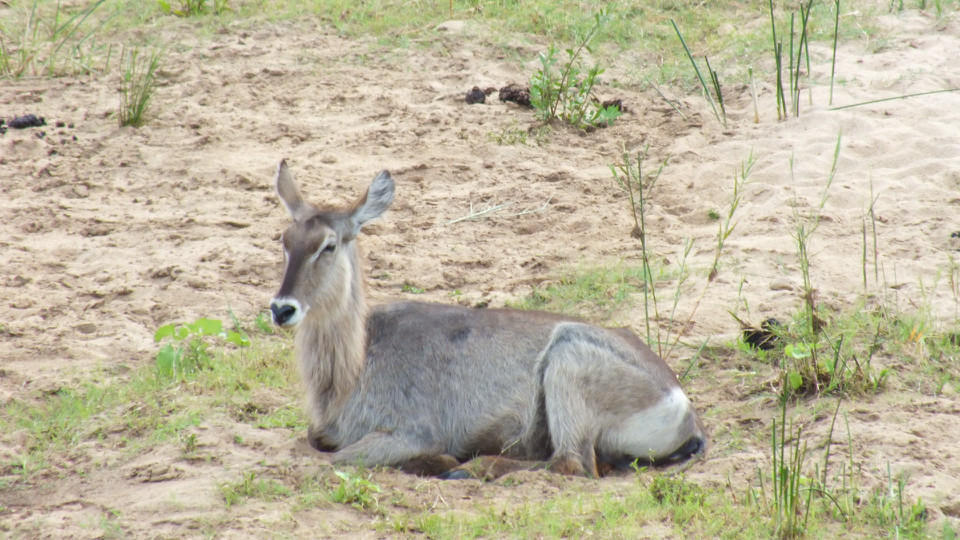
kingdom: Animalia
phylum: Chordata
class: Mammalia
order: Artiodactyla
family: Bovidae
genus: Kobus
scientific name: Kobus ellipsiprymnus
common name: Waterbuck
